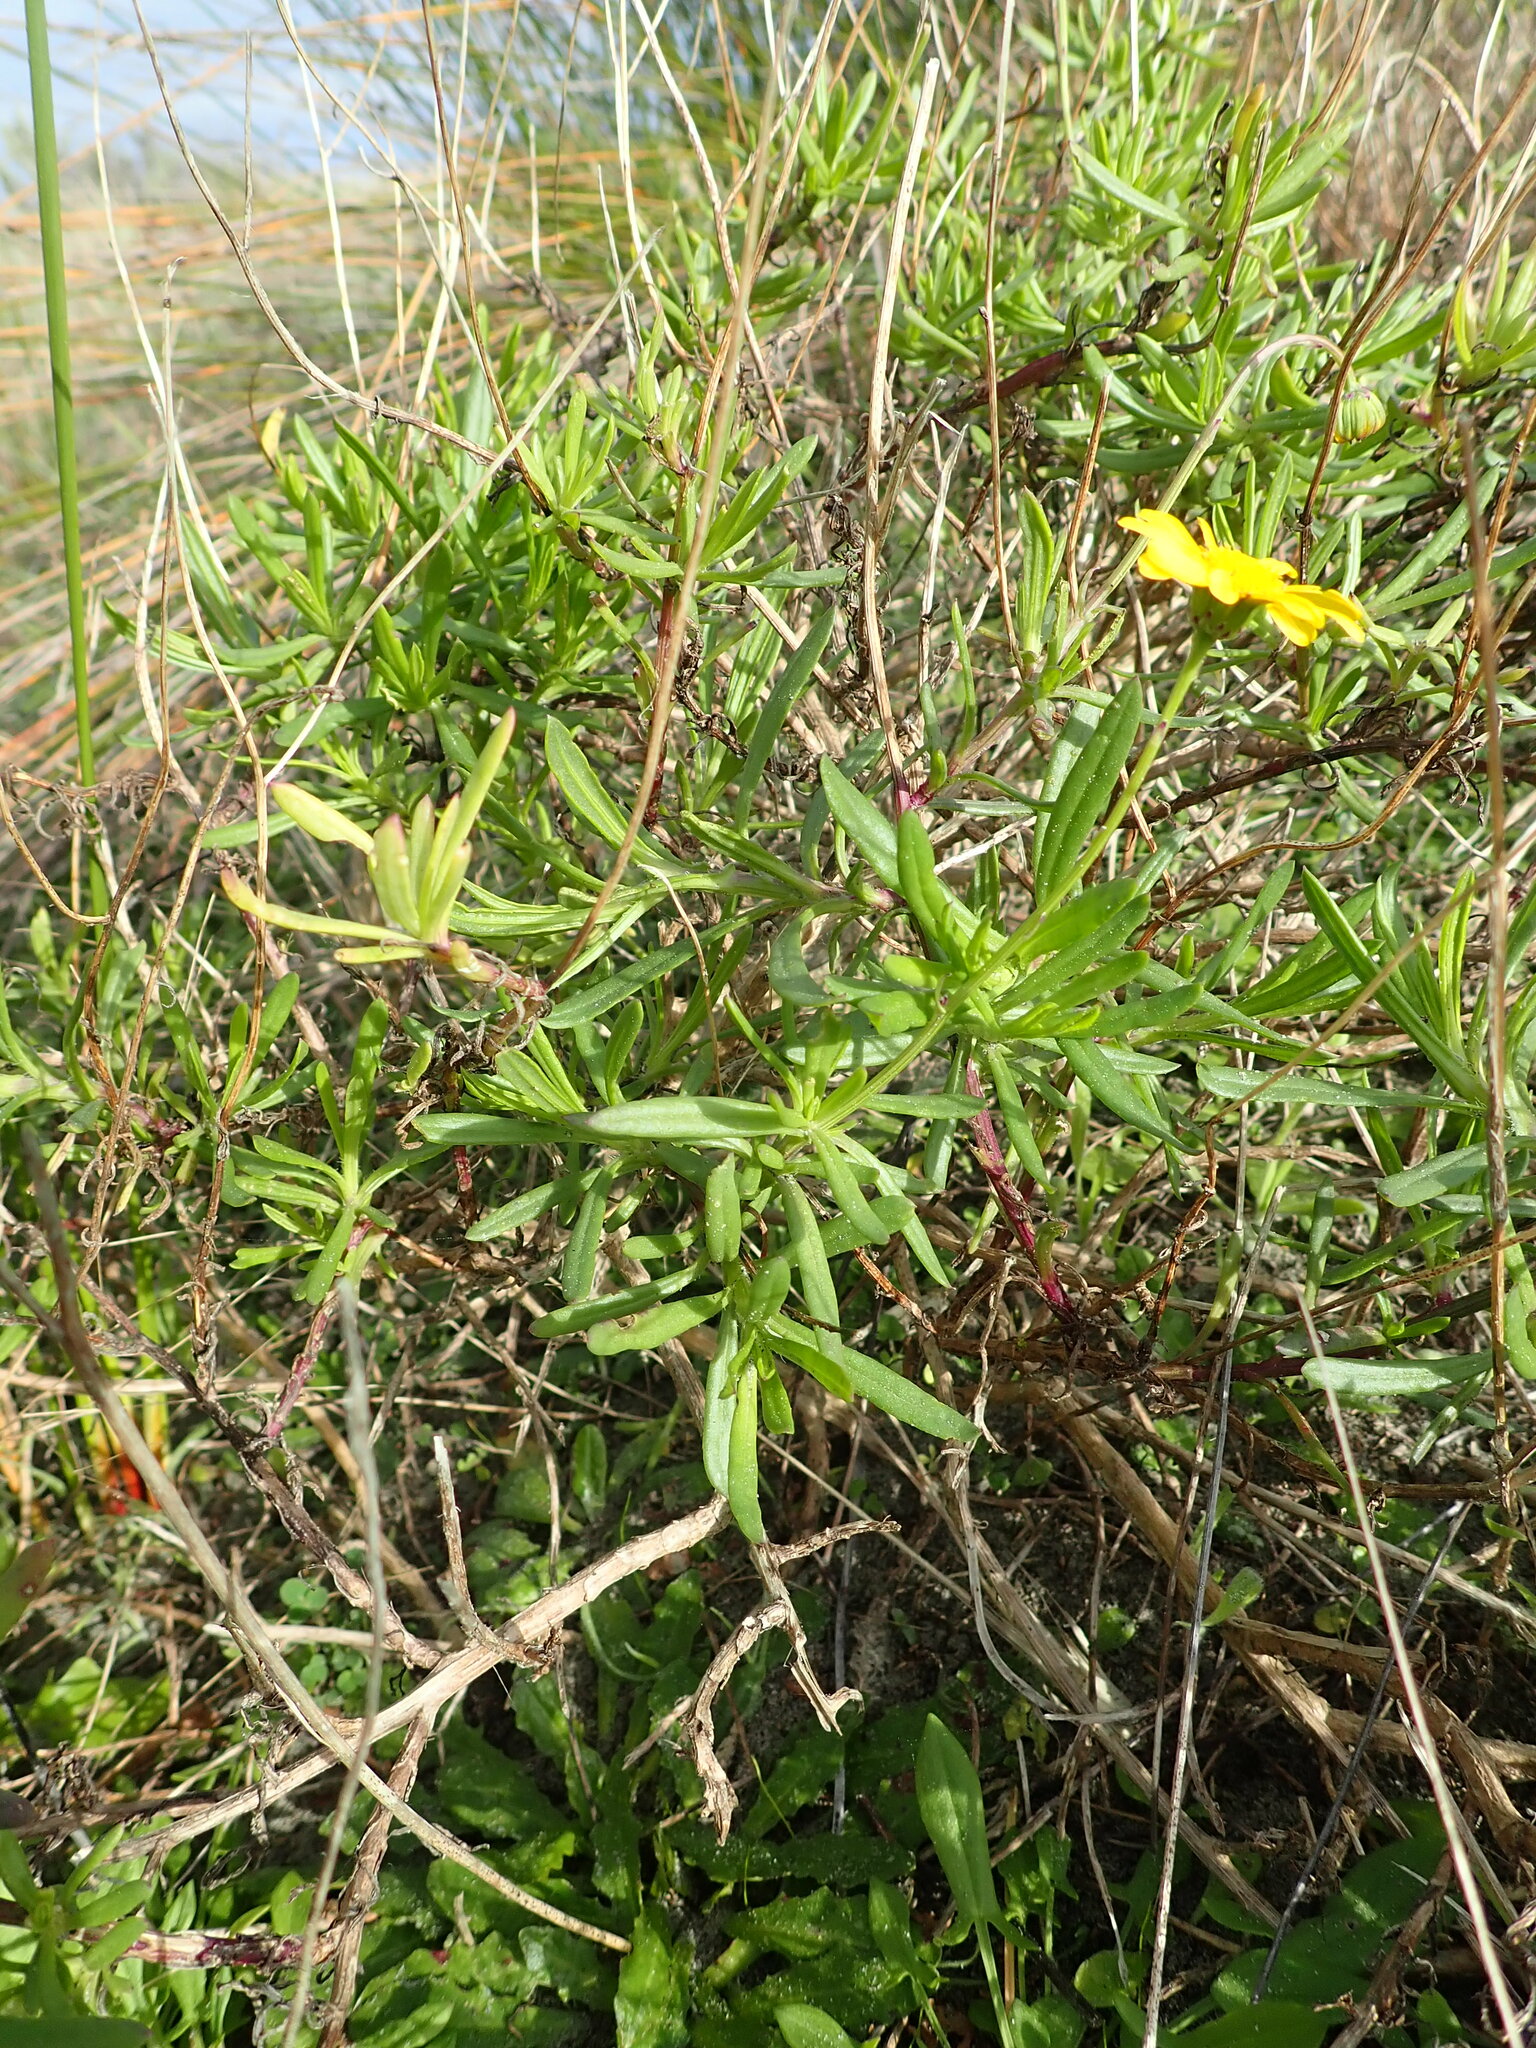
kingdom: Plantae
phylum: Tracheophyta
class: Magnoliopsida
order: Asterales
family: Asteraceae
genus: Senecio
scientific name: Senecio skirrhodon
